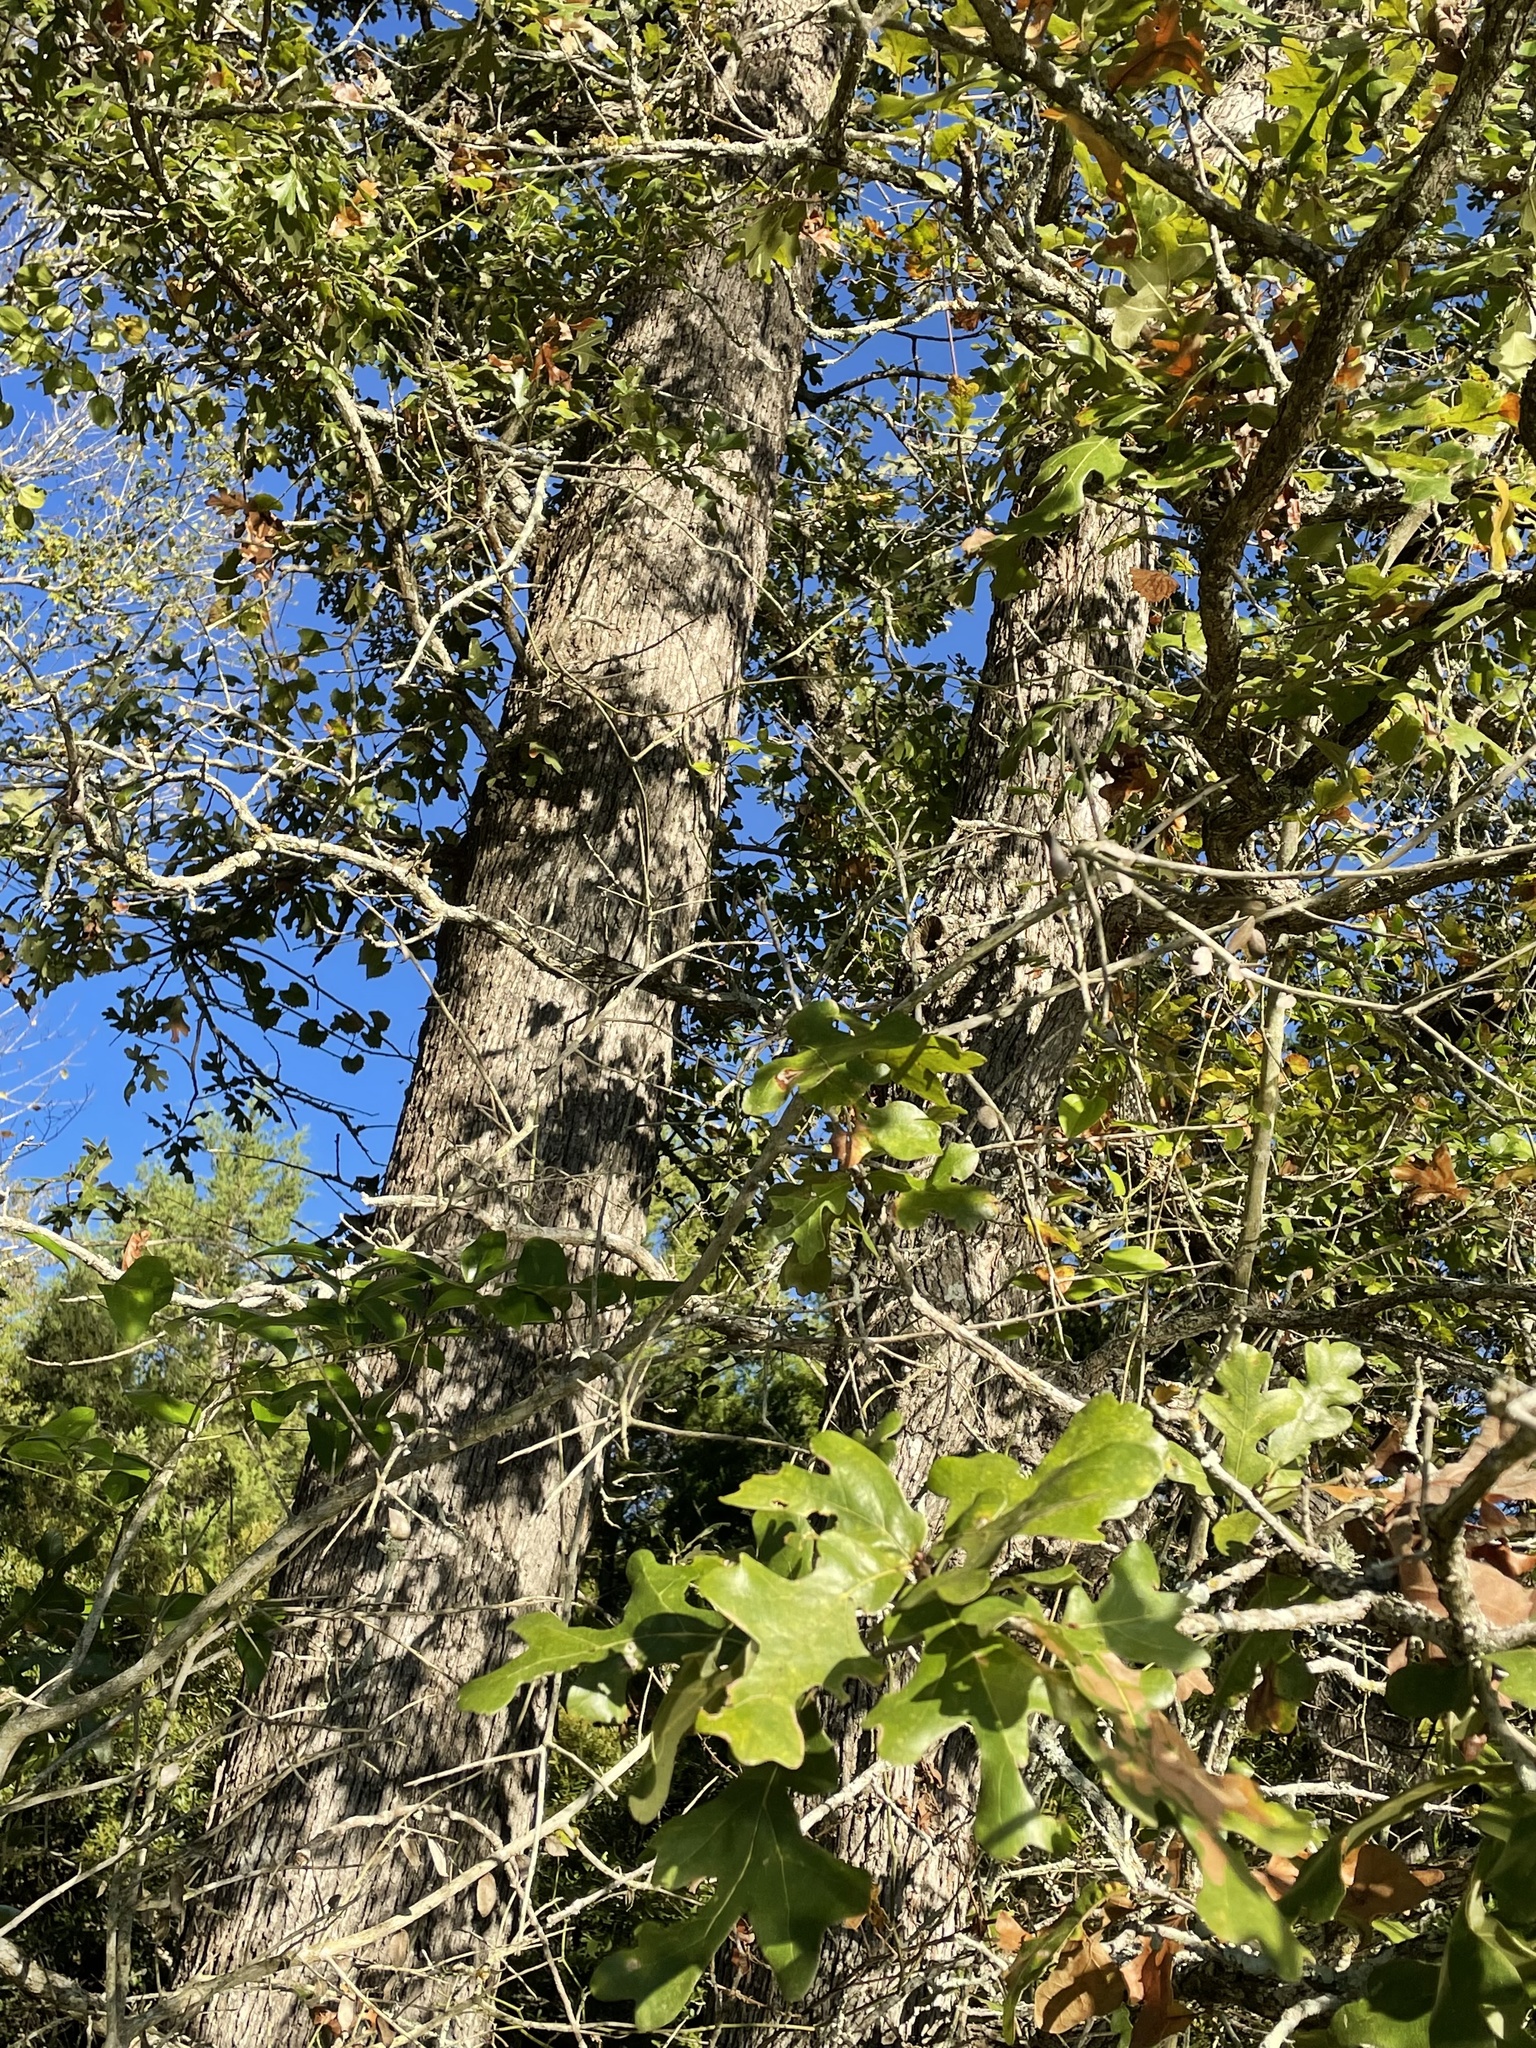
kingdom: Plantae
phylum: Tracheophyta
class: Magnoliopsida
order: Fagales
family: Fagaceae
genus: Quercus
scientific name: Quercus stellata
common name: Post oak
